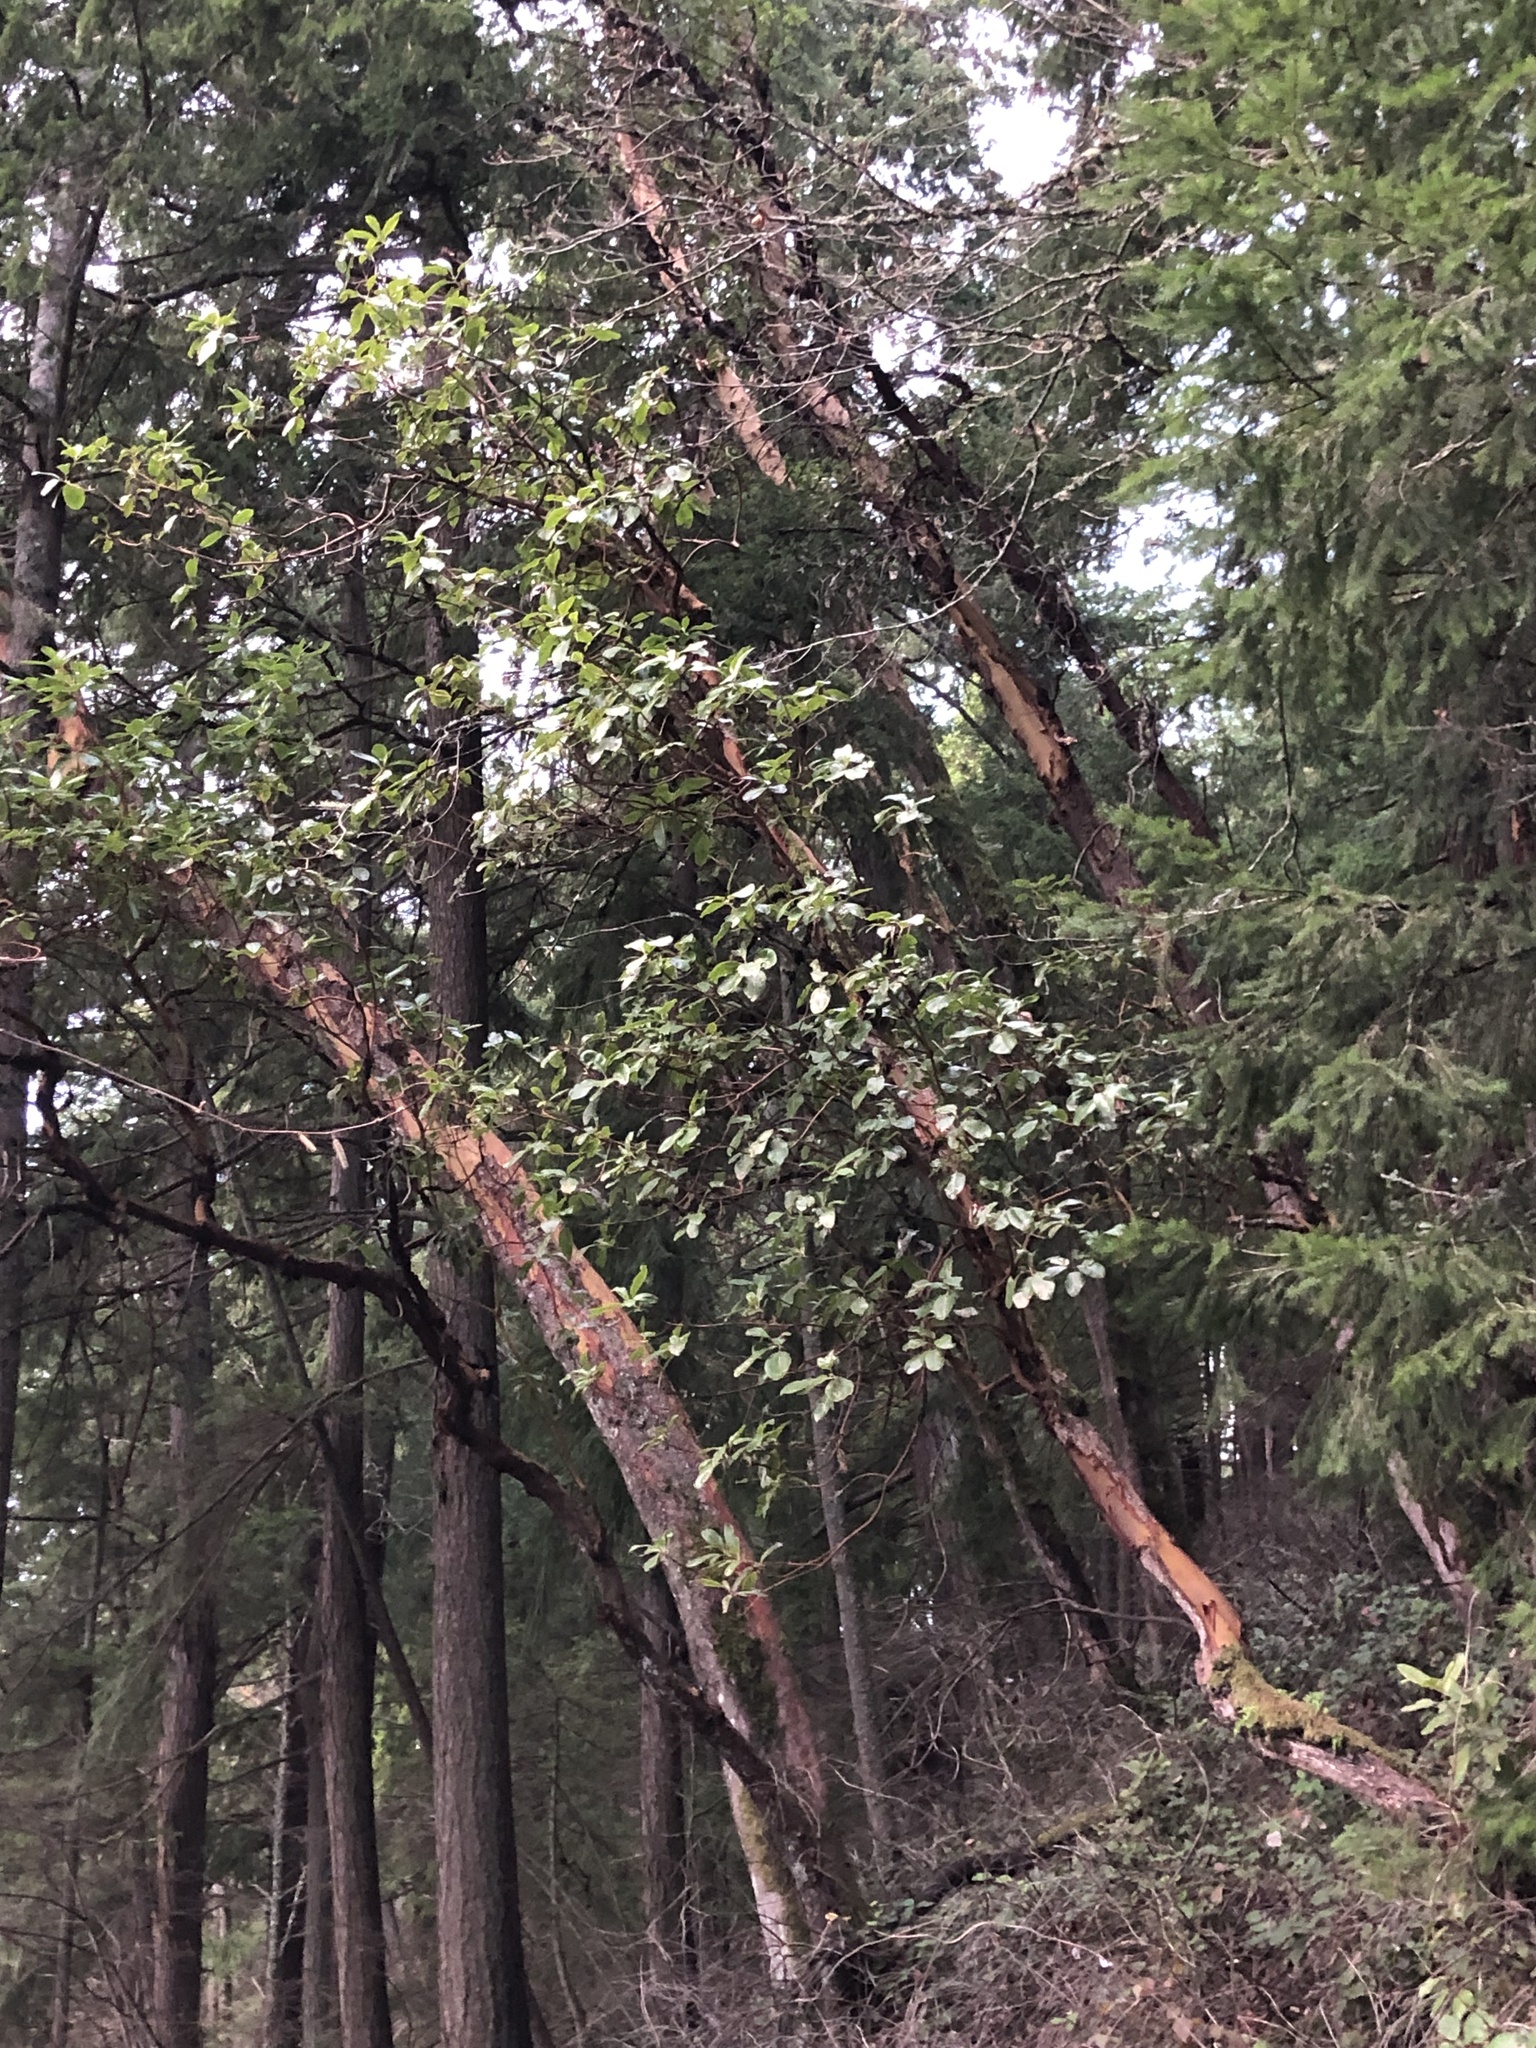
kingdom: Plantae
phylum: Tracheophyta
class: Magnoliopsida
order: Ericales
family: Ericaceae
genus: Arbutus
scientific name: Arbutus menziesii
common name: Pacific madrone
